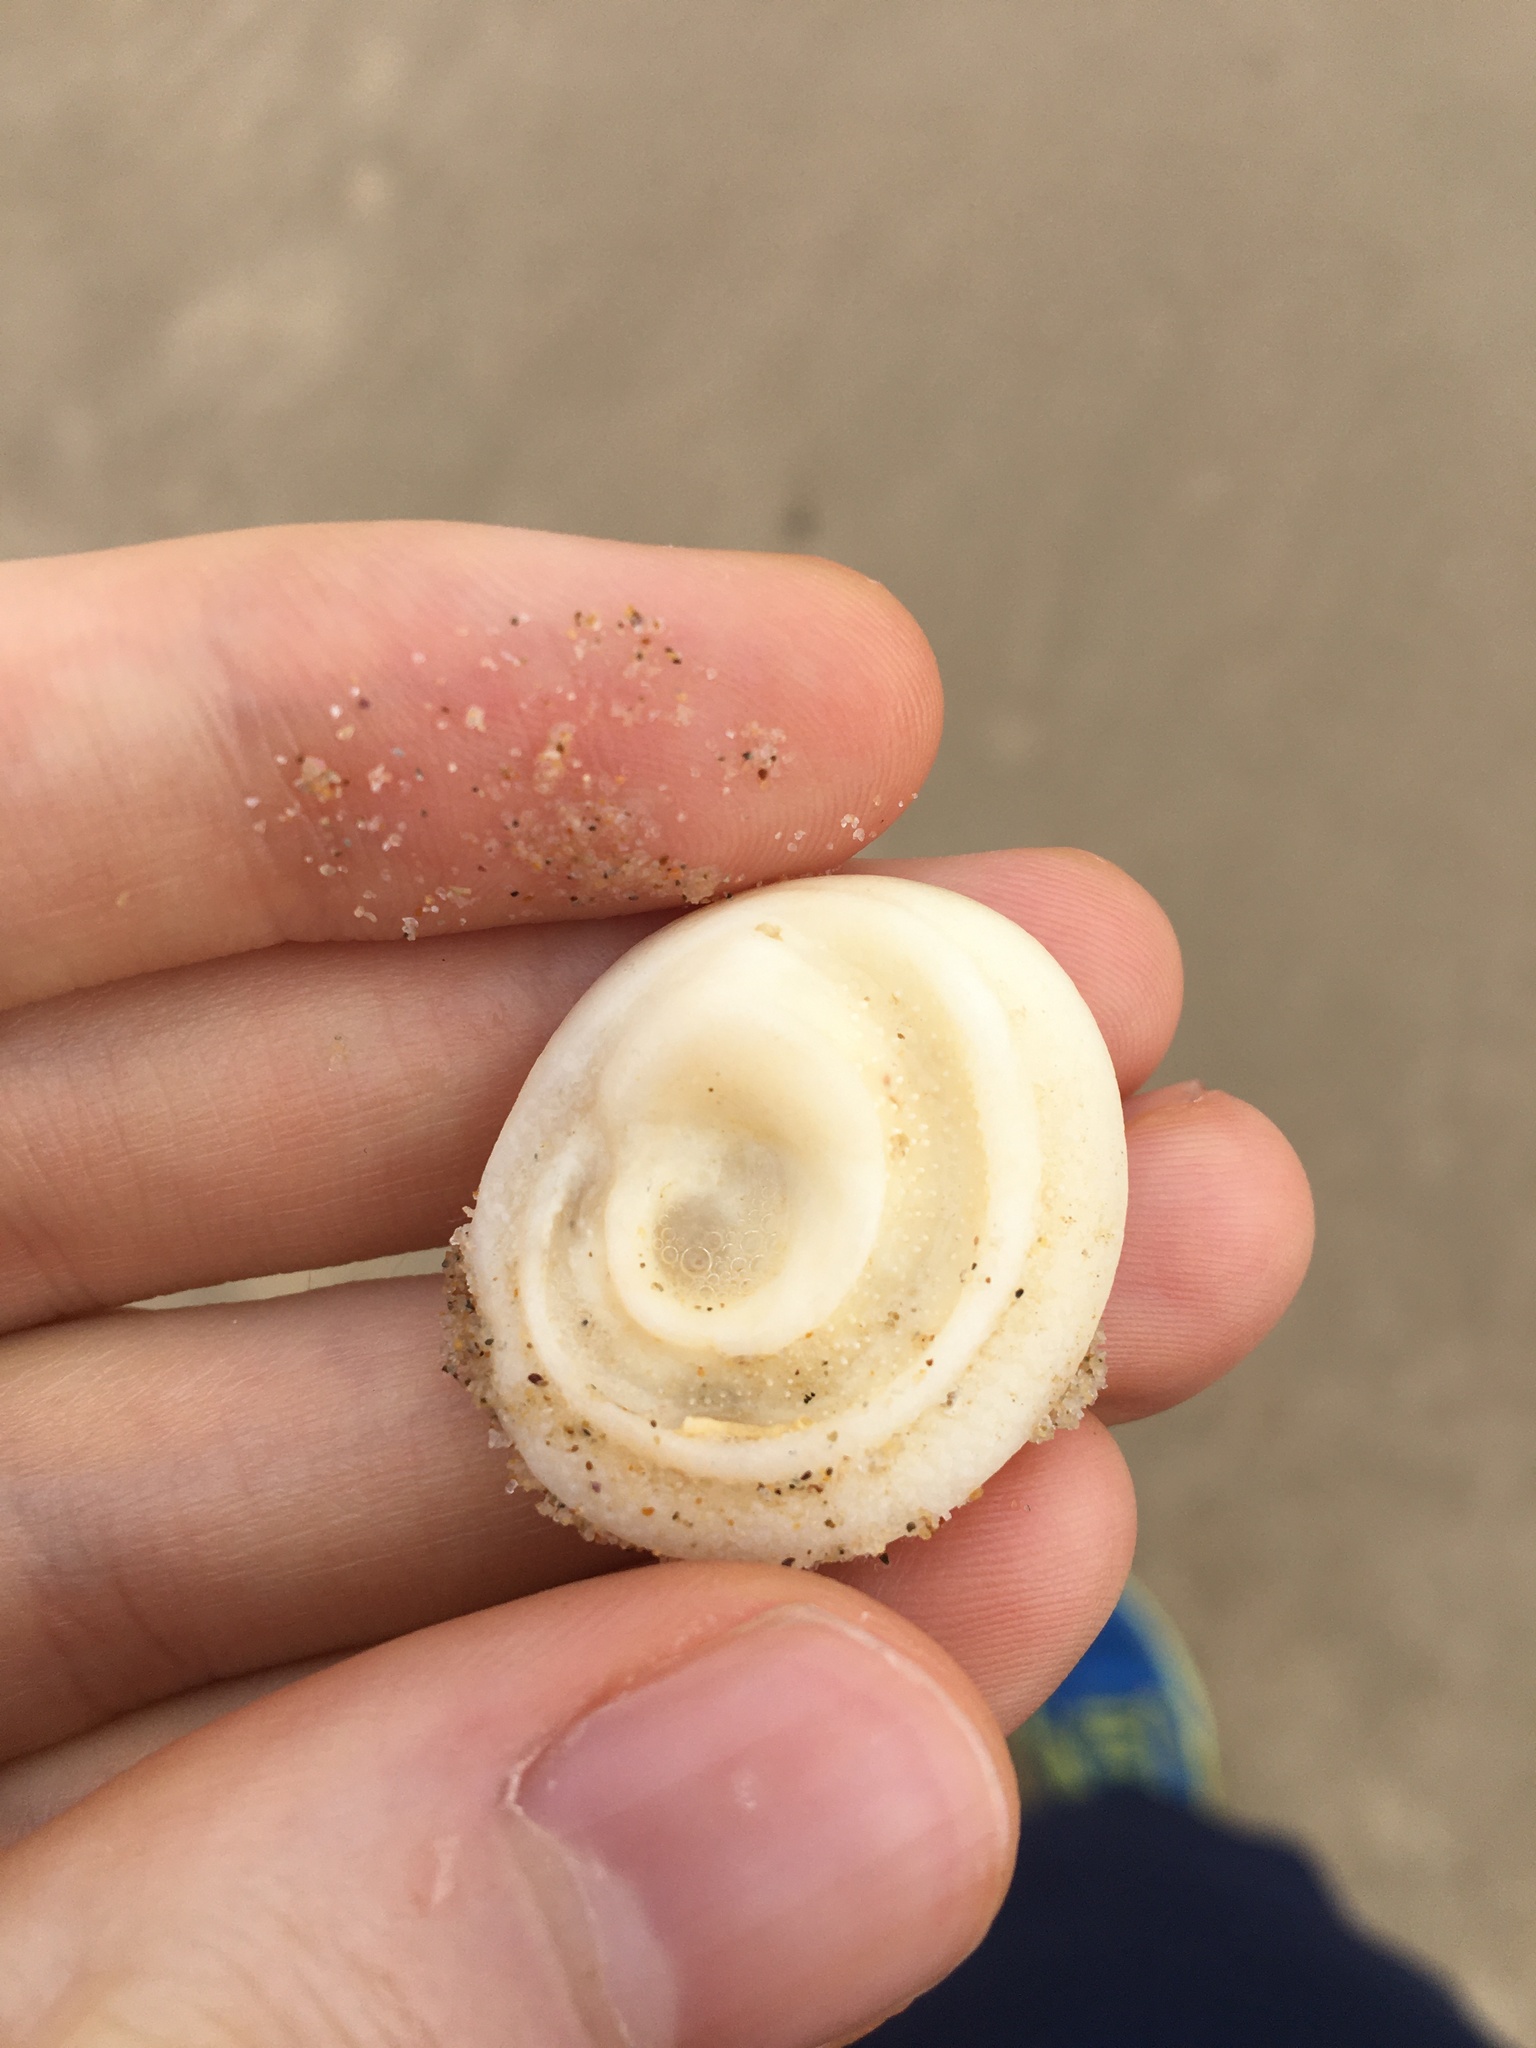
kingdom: Animalia
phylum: Mollusca
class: Gastropoda
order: Trochida
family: Turbinidae
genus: Lunella
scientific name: Lunella torquata
